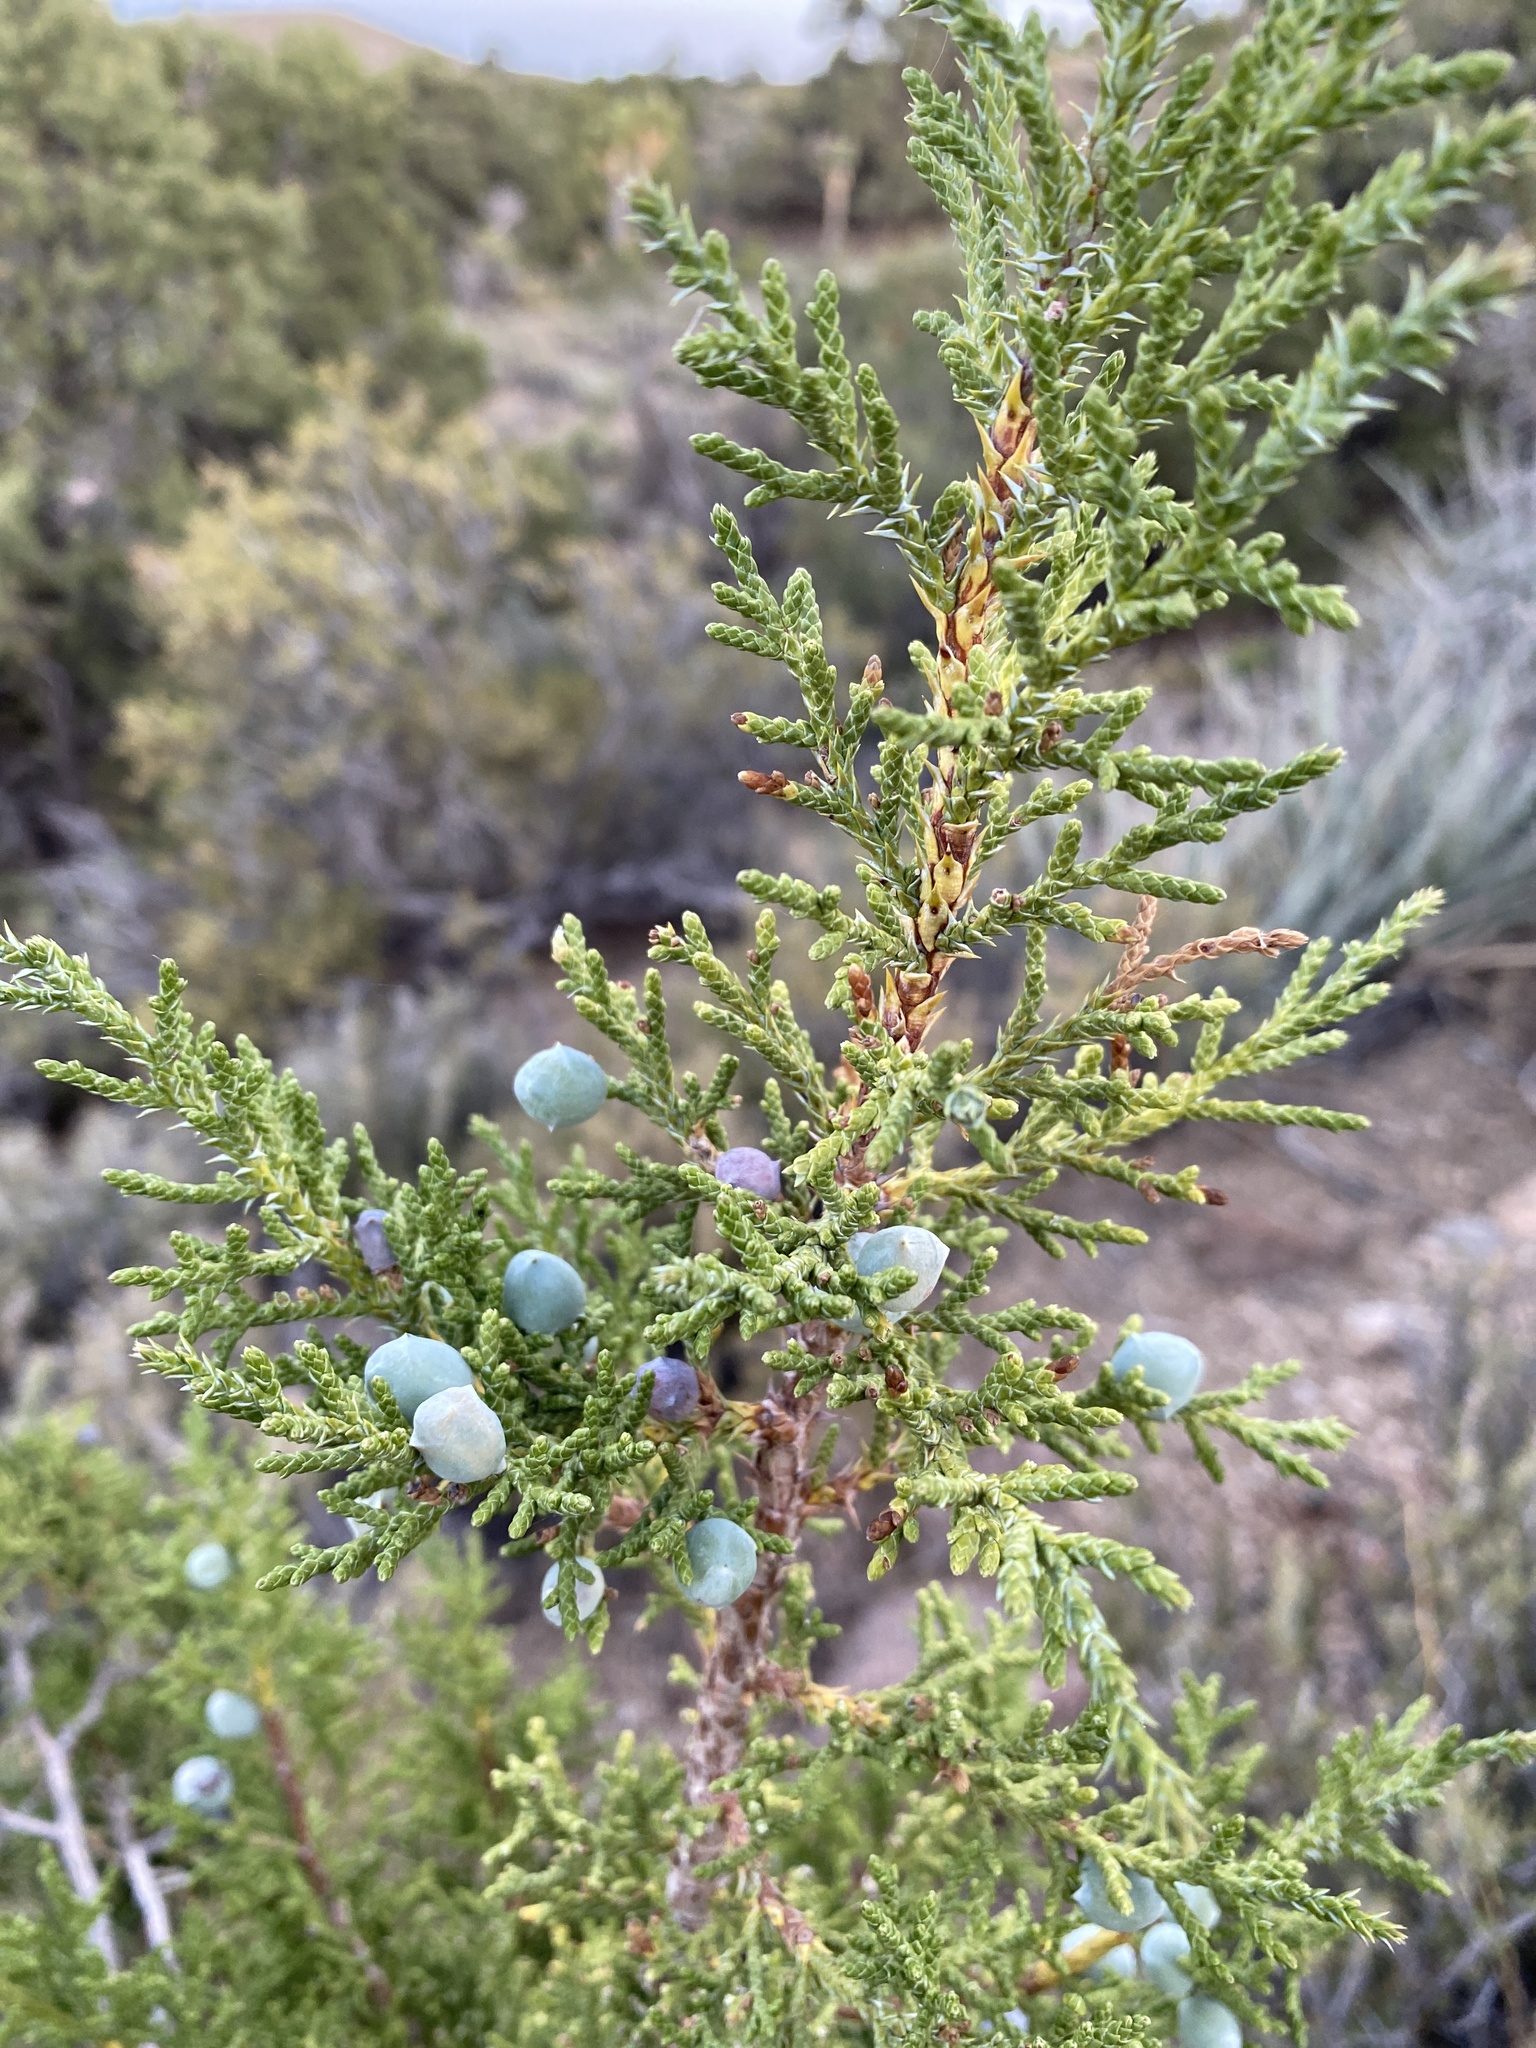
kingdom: Plantae
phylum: Tracheophyta
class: Pinopsida
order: Pinales
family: Cupressaceae
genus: Juniperus
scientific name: Juniperus osteosperma
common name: Utah juniper
